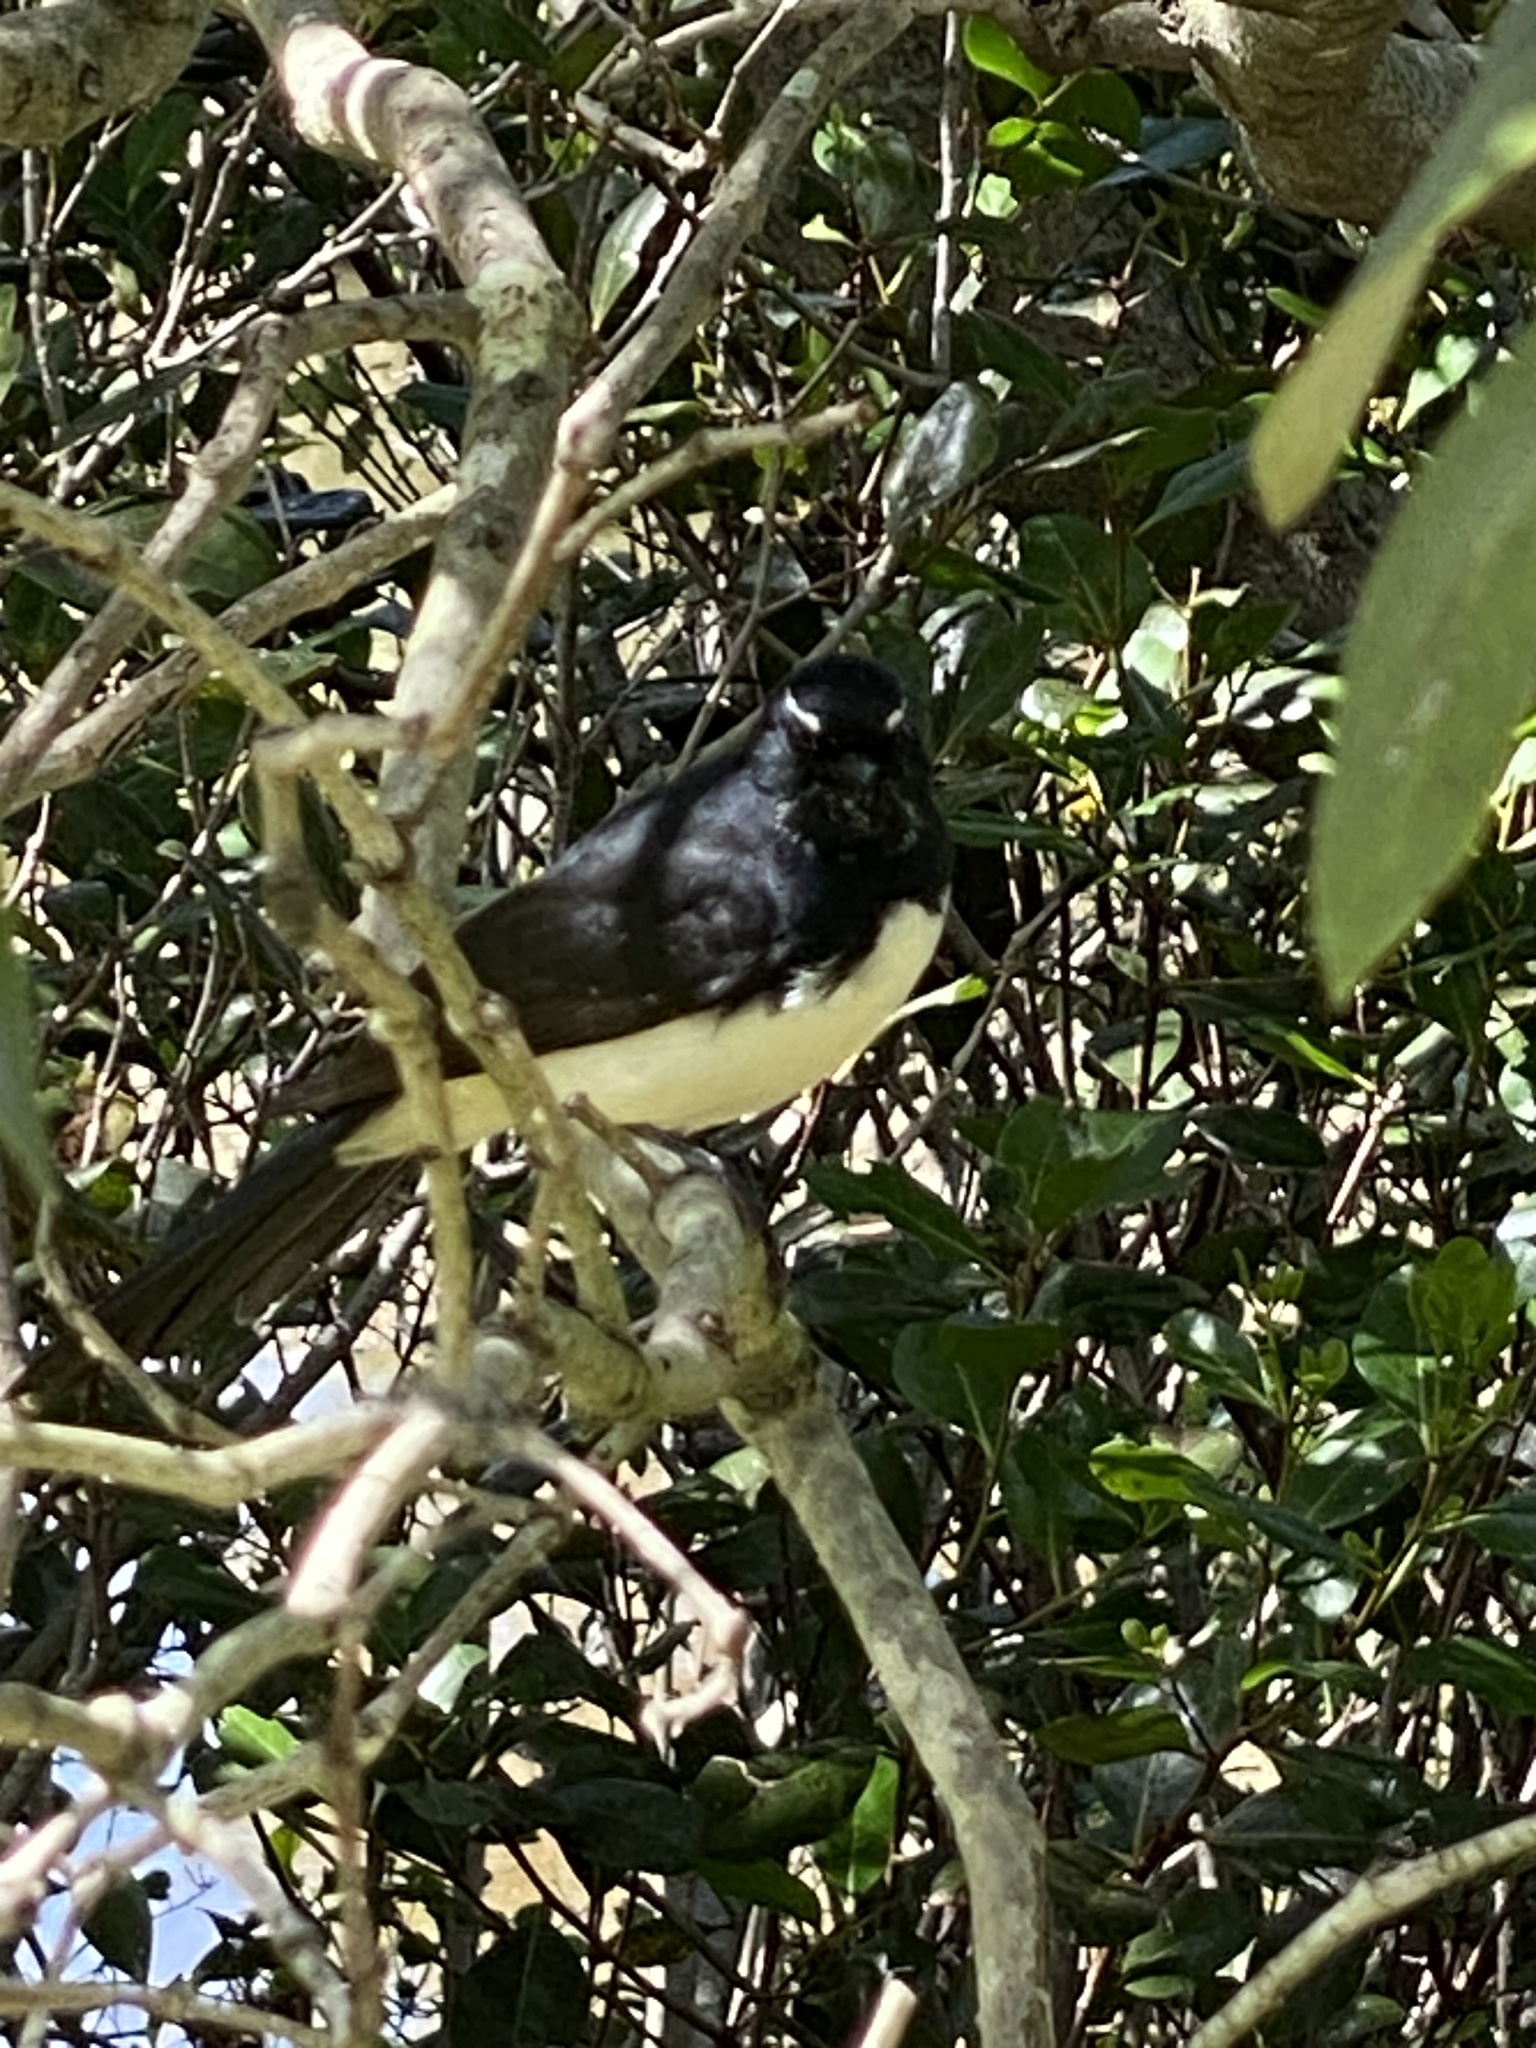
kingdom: Animalia
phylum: Chordata
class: Aves
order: Passeriformes
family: Rhipiduridae
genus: Rhipidura
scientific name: Rhipidura leucophrys
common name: Willie wagtail
